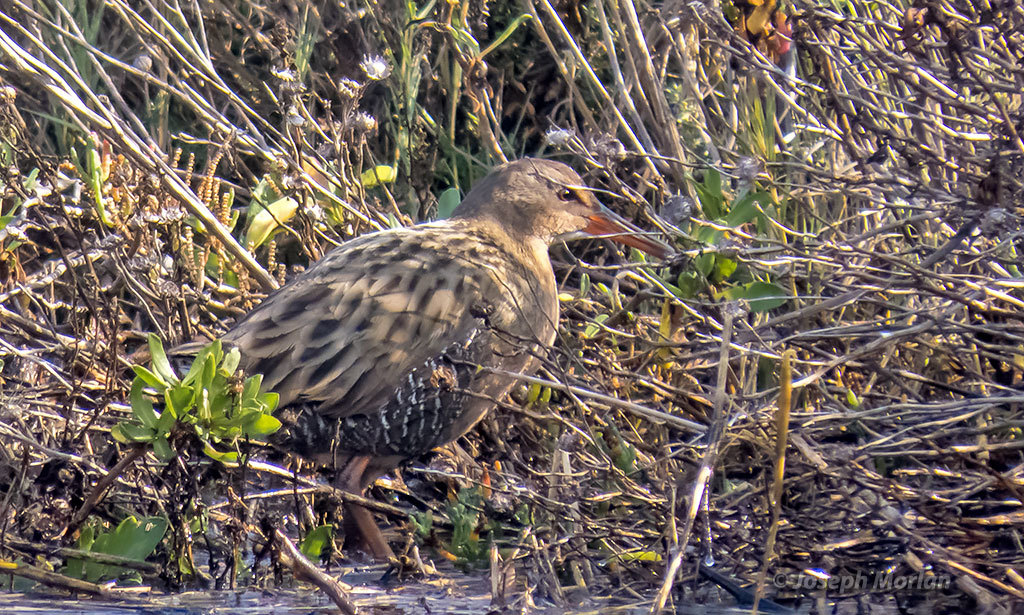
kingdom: Animalia
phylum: Chordata
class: Aves
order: Gruiformes
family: Rallidae
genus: Rallus
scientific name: Rallus obsoletus
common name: Ridgway's rail
